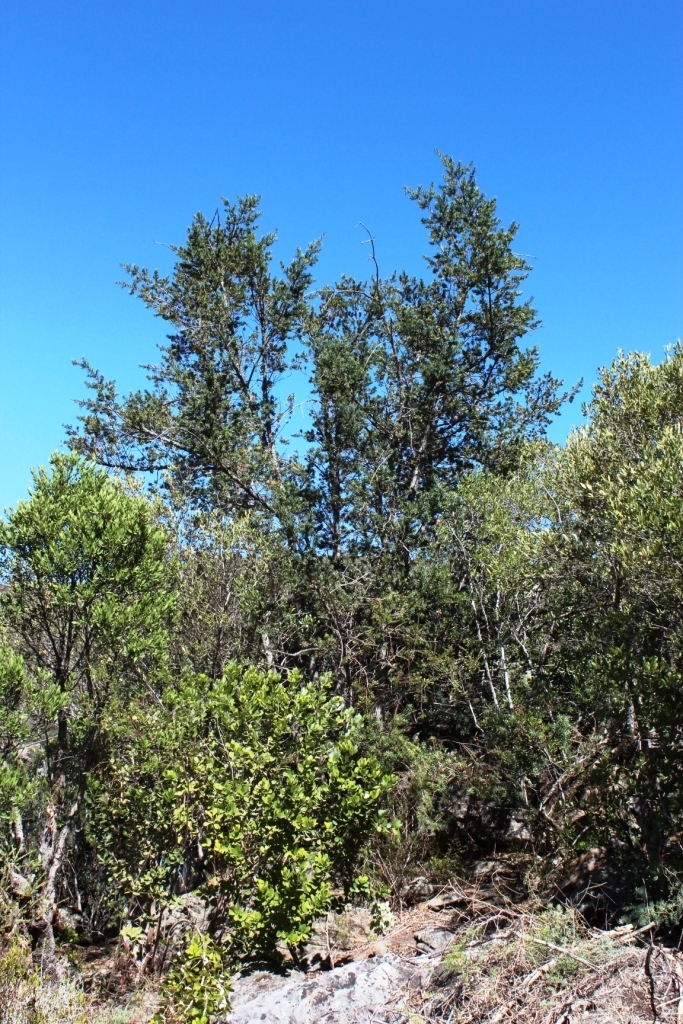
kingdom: Plantae
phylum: Tracheophyta
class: Pinopsida
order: Pinales
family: Podocarpaceae
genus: Podocarpus
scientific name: Podocarpus elongatus
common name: Breede river yellowwood
